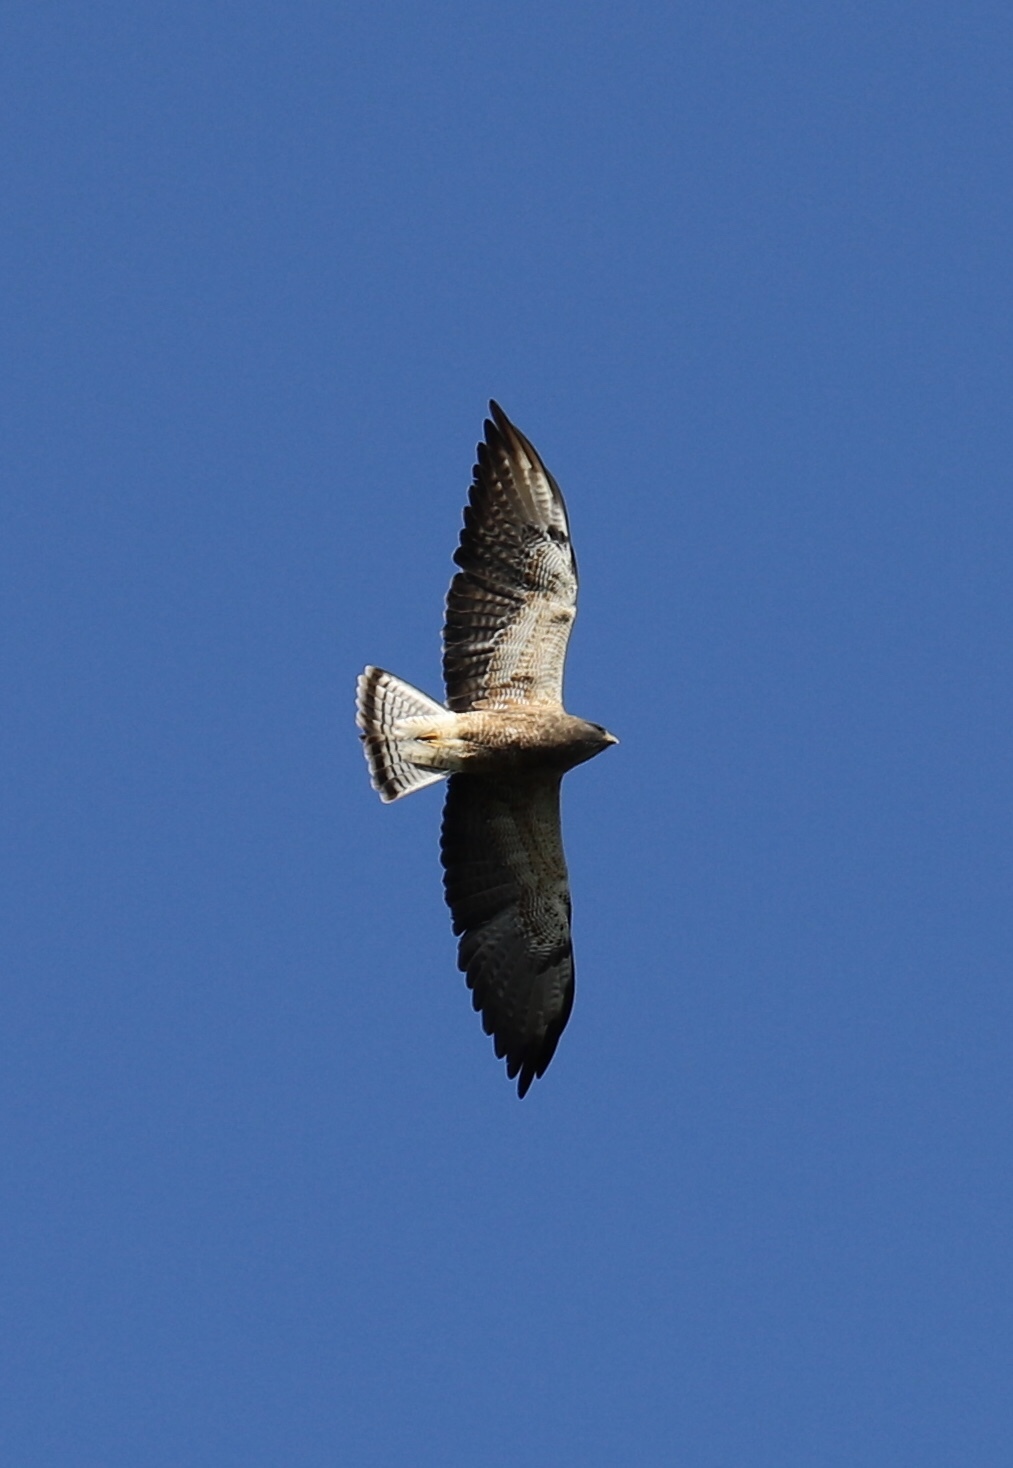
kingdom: Animalia
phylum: Chordata
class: Aves
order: Accipitriformes
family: Accipitridae
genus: Buteo
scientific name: Buteo swainsoni
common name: Swainson's hawk
